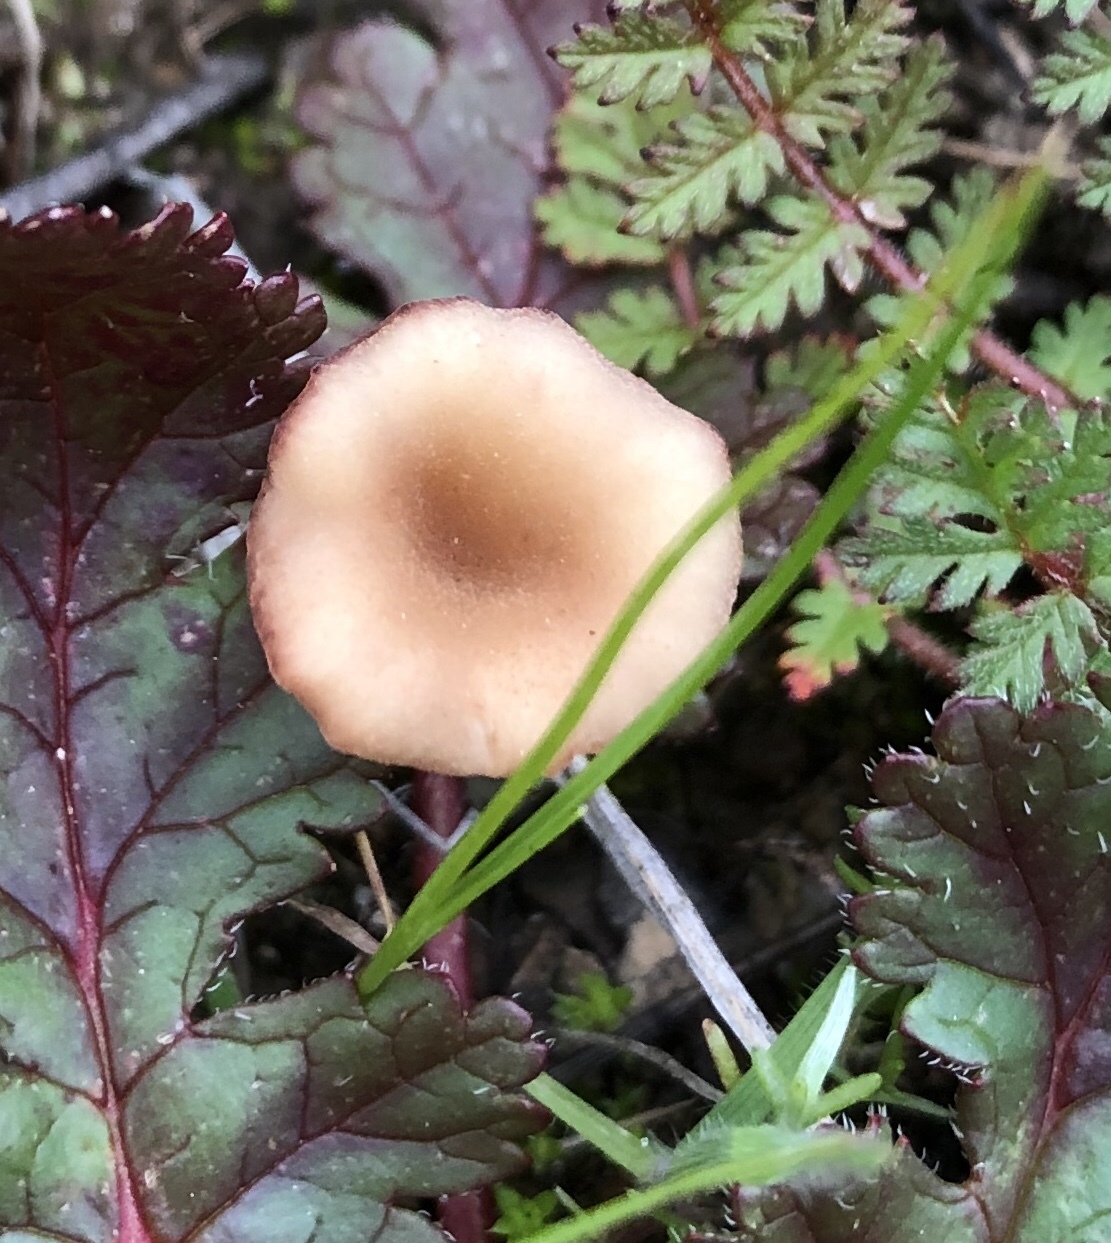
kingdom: Fungi
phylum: Basidiomycota
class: Agaricomycetes
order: Hymenochaetales
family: Rickenellaceae
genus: Contumyces
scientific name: Contumyces rosellus
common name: Rosy navel
